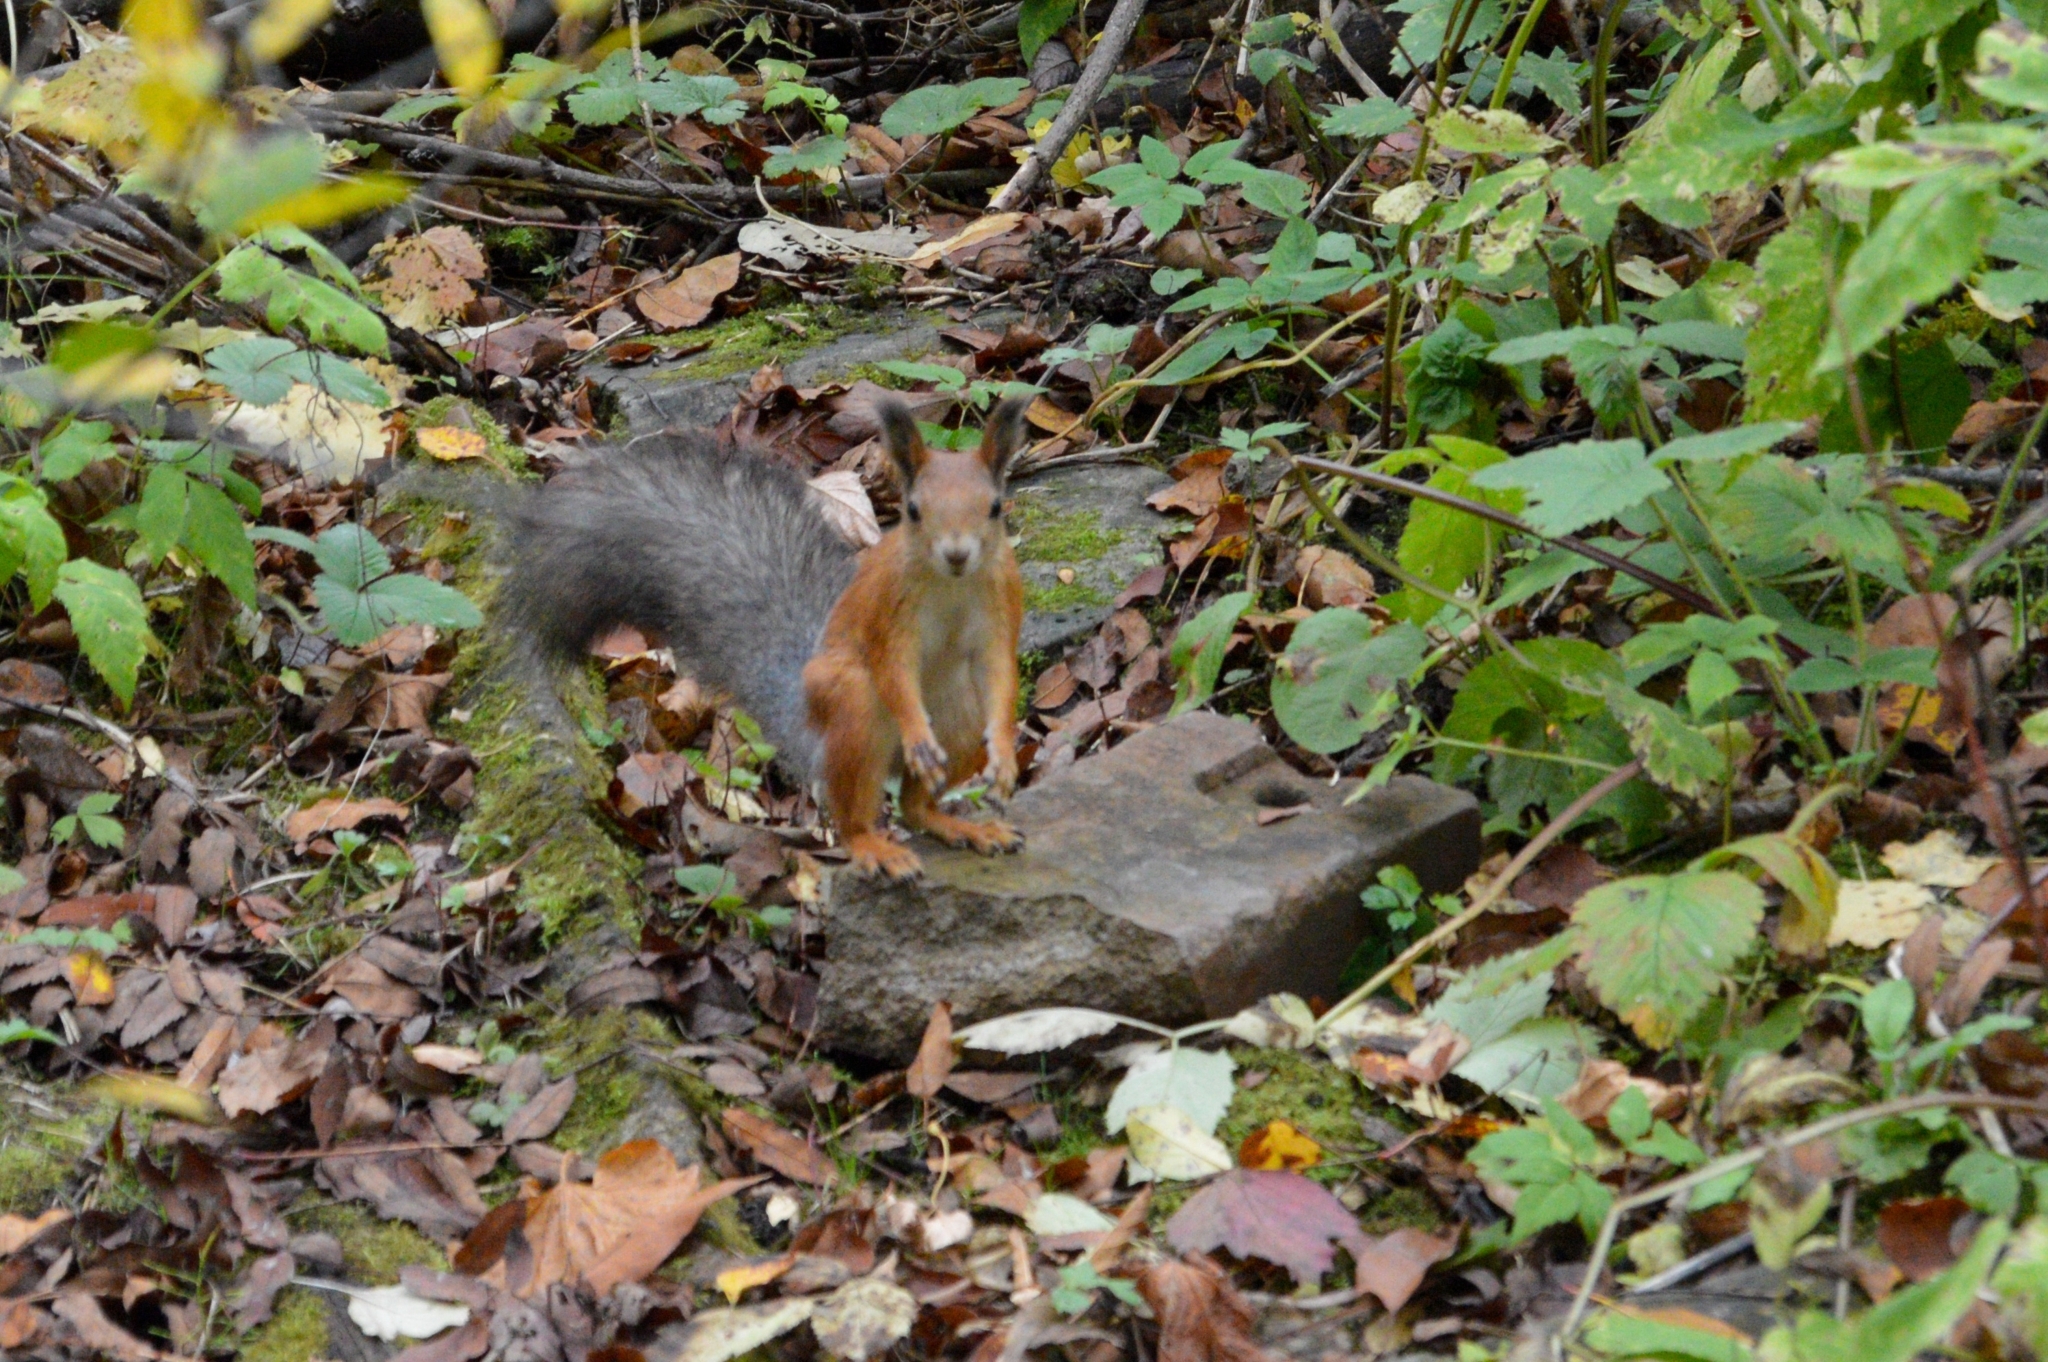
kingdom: Animalia
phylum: Chordata
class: Mammalia
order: Rodentia
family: Sciuridae
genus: Sciurus
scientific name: Sciurus vulgaris
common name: Eurasian red squirrel
